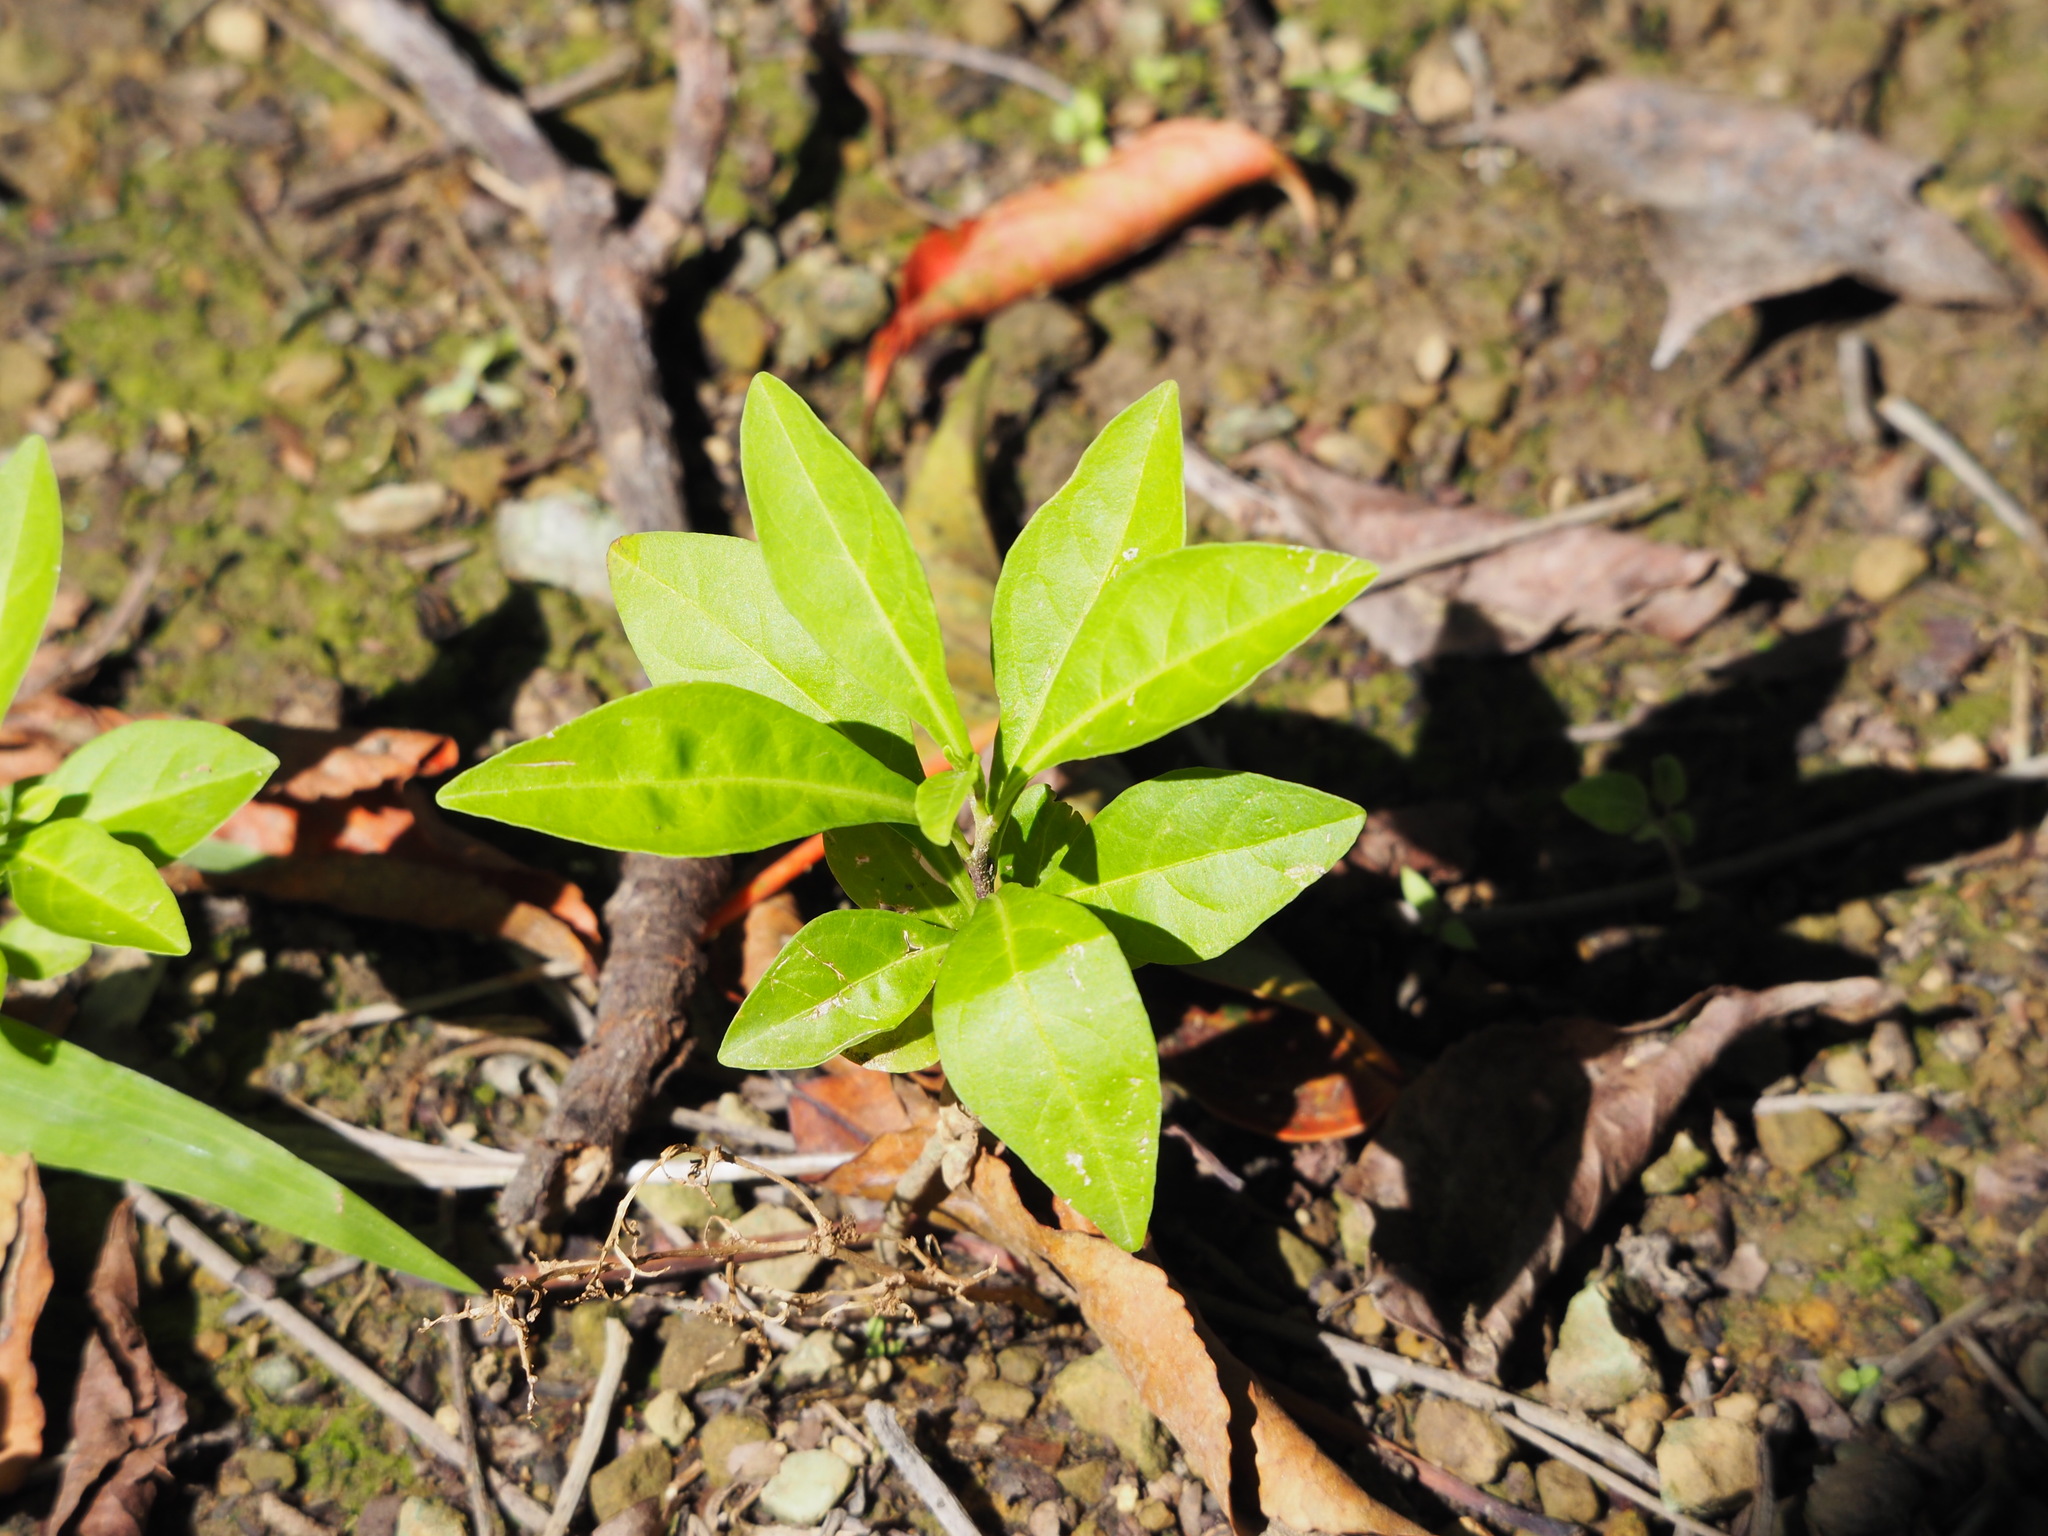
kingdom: Plantae
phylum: Tracheophyta
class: Magnoliopsida
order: Solanales
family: Solanaceae
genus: Solanum
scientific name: Solanum diphyllum
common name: Twoleaf nightshade
